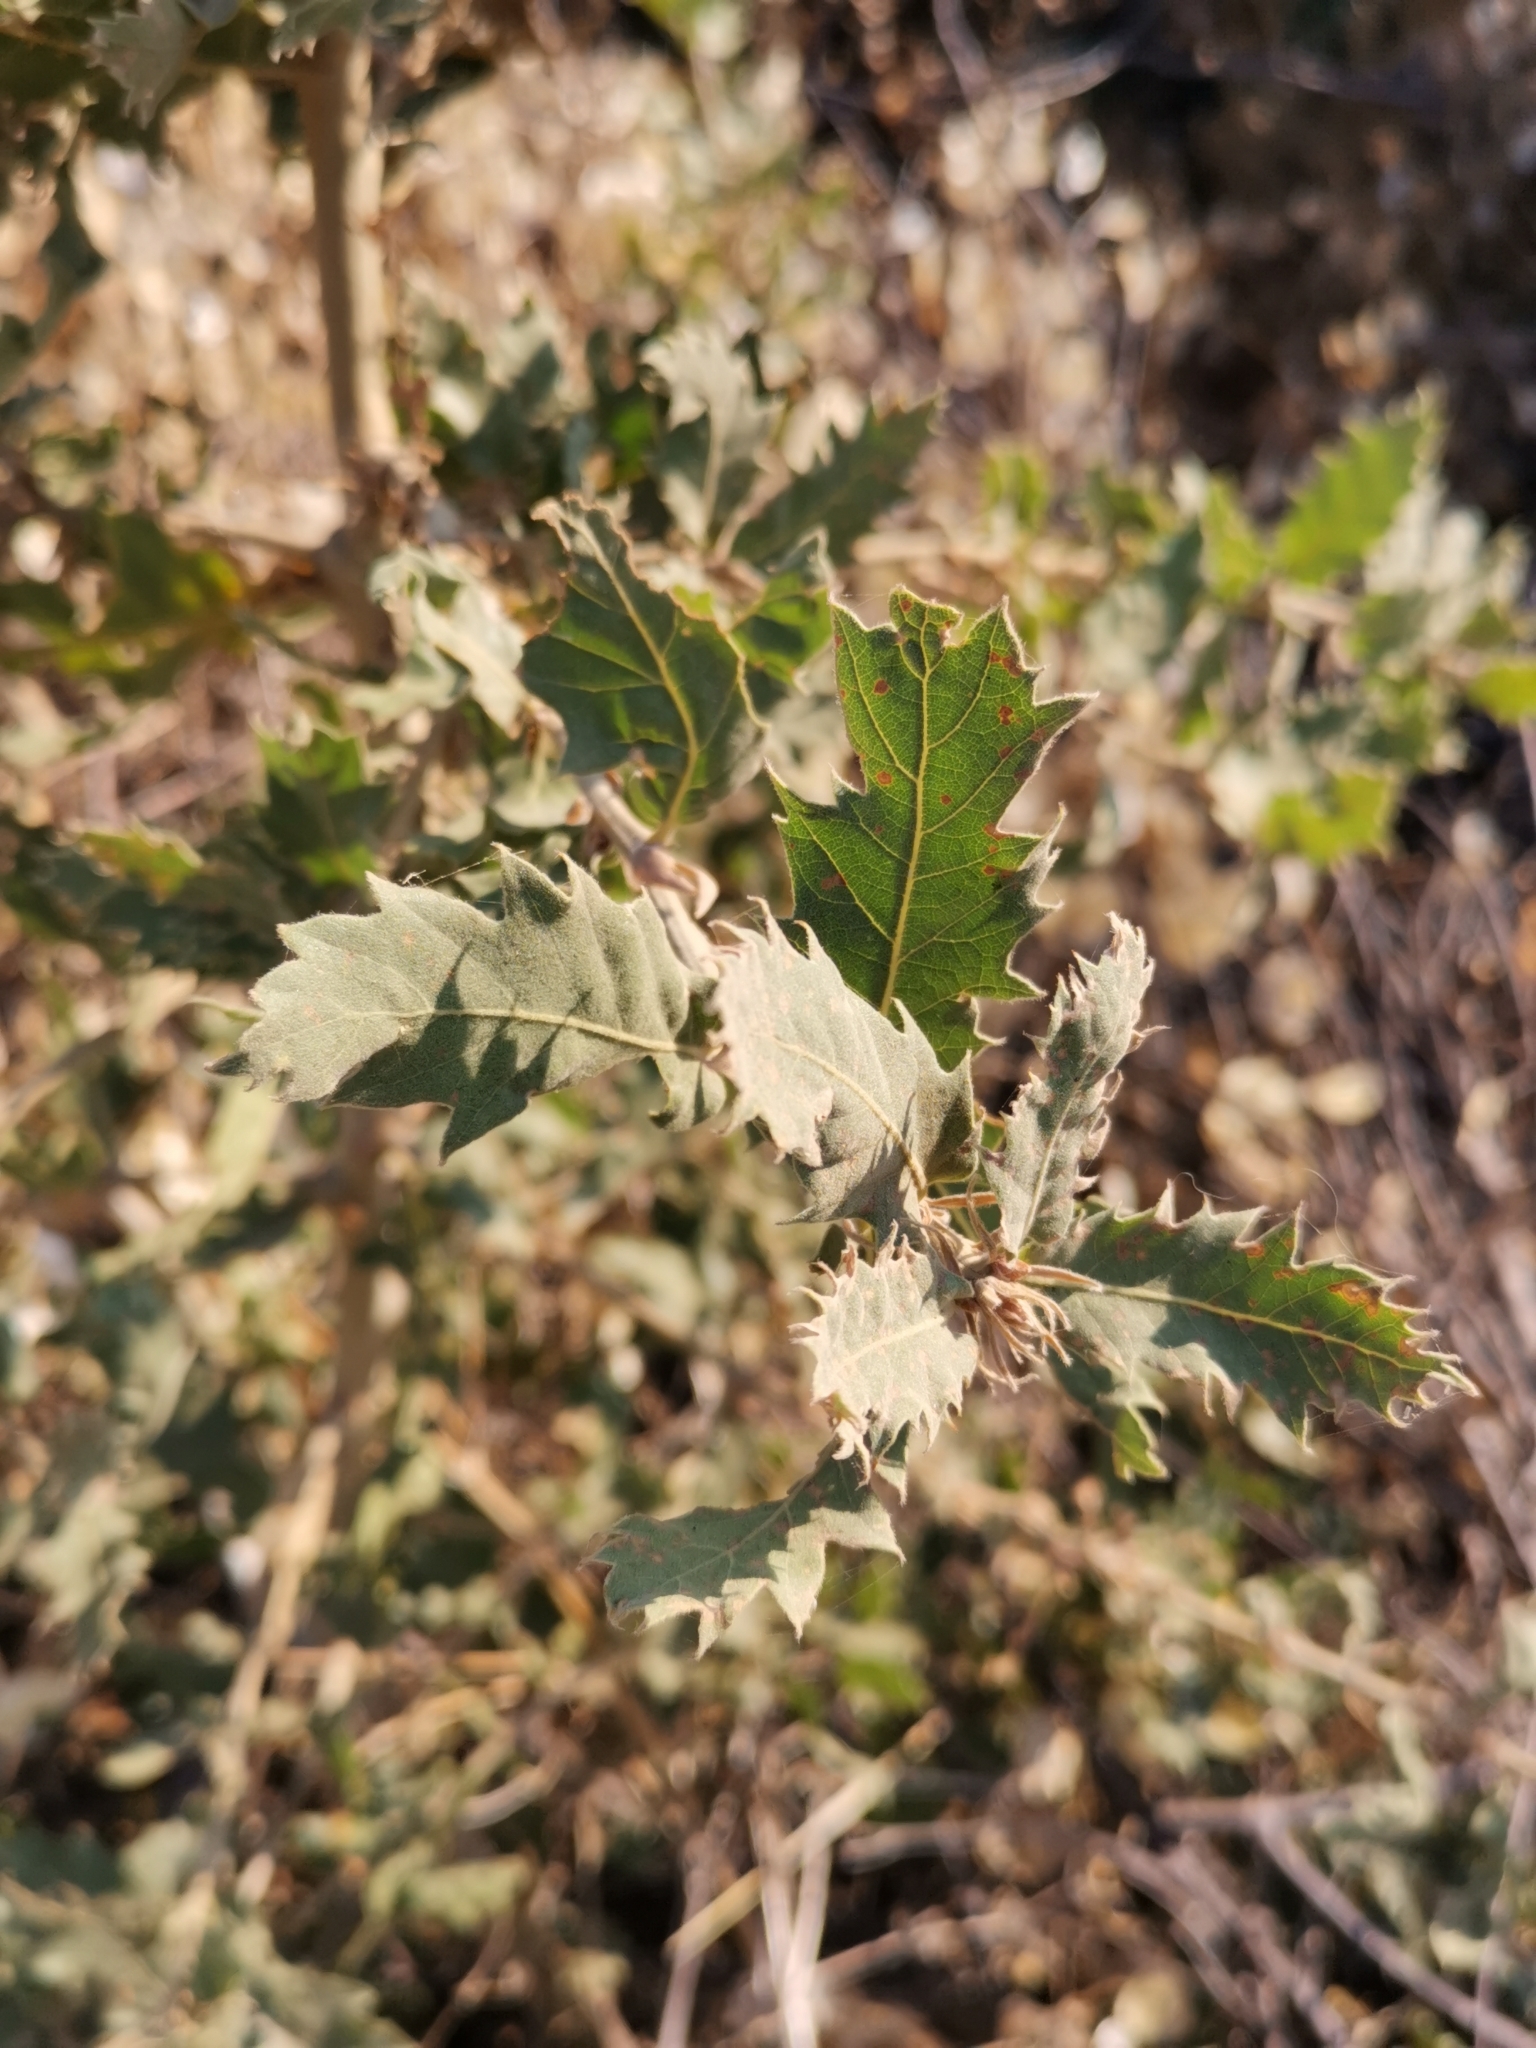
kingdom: Plantae
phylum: Tracheophyta
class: Magnoliopsida
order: Fagales
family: Fagaceae
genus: Quercus
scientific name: Quercus ithaburensis
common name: Tabor oak
